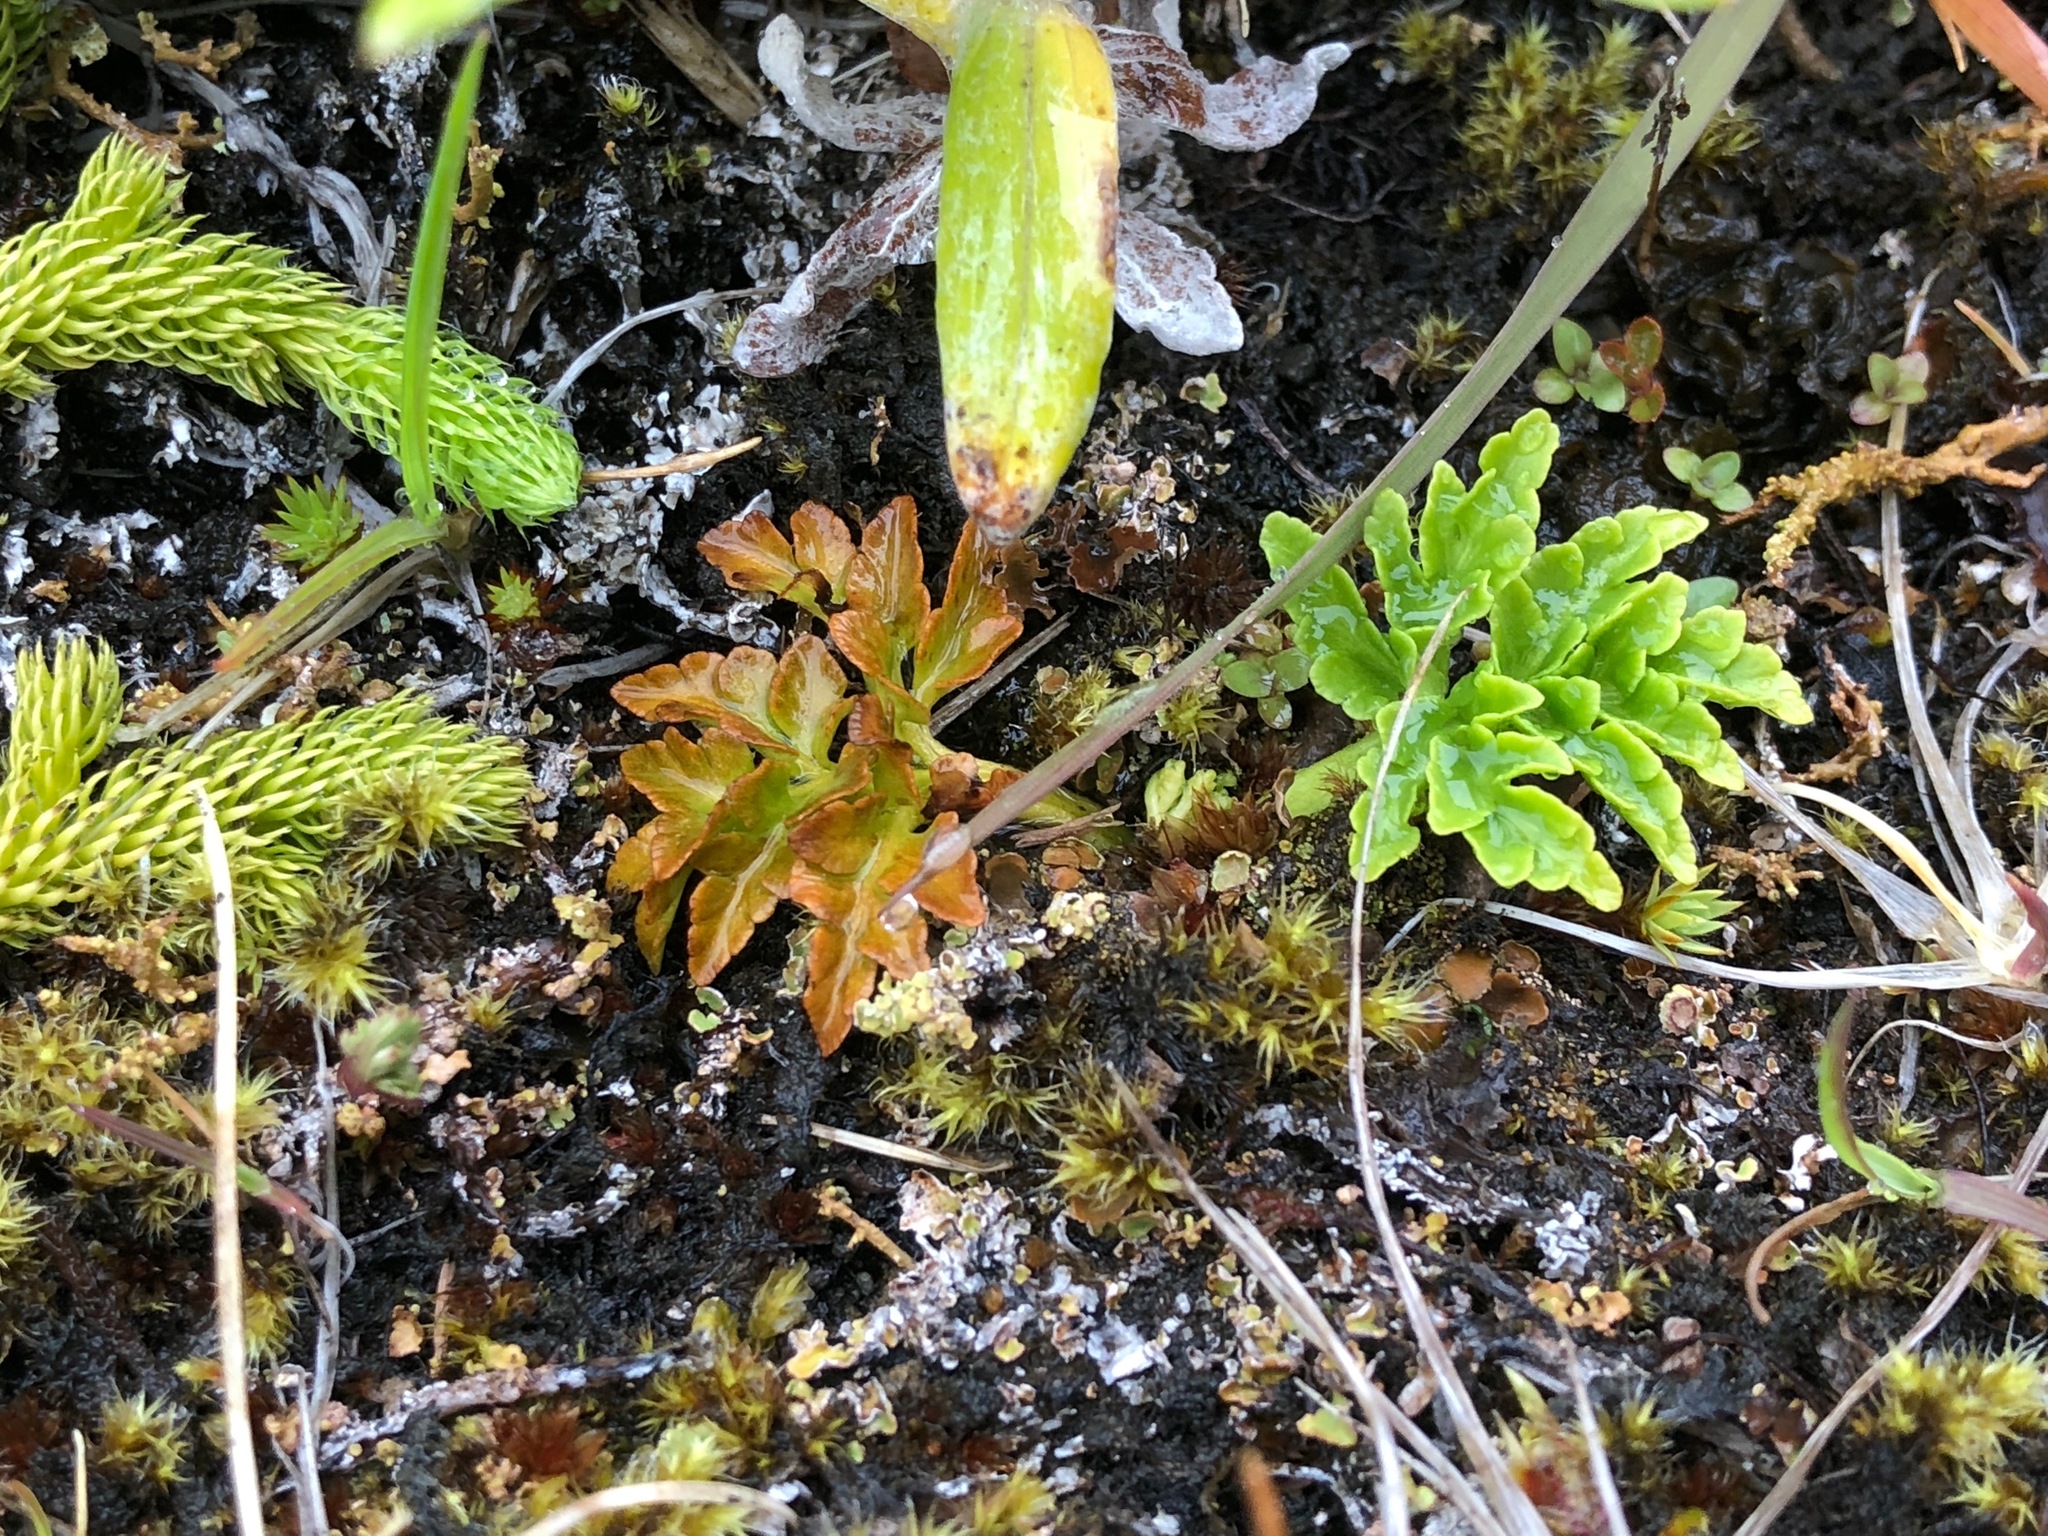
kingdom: Plantae
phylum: Tracheophyta
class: Polypodiopsida
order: Ophioglossales
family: Ophioglossaceae
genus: Sceptridium
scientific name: Sceptridium multifidum
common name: Leathery grape fern
